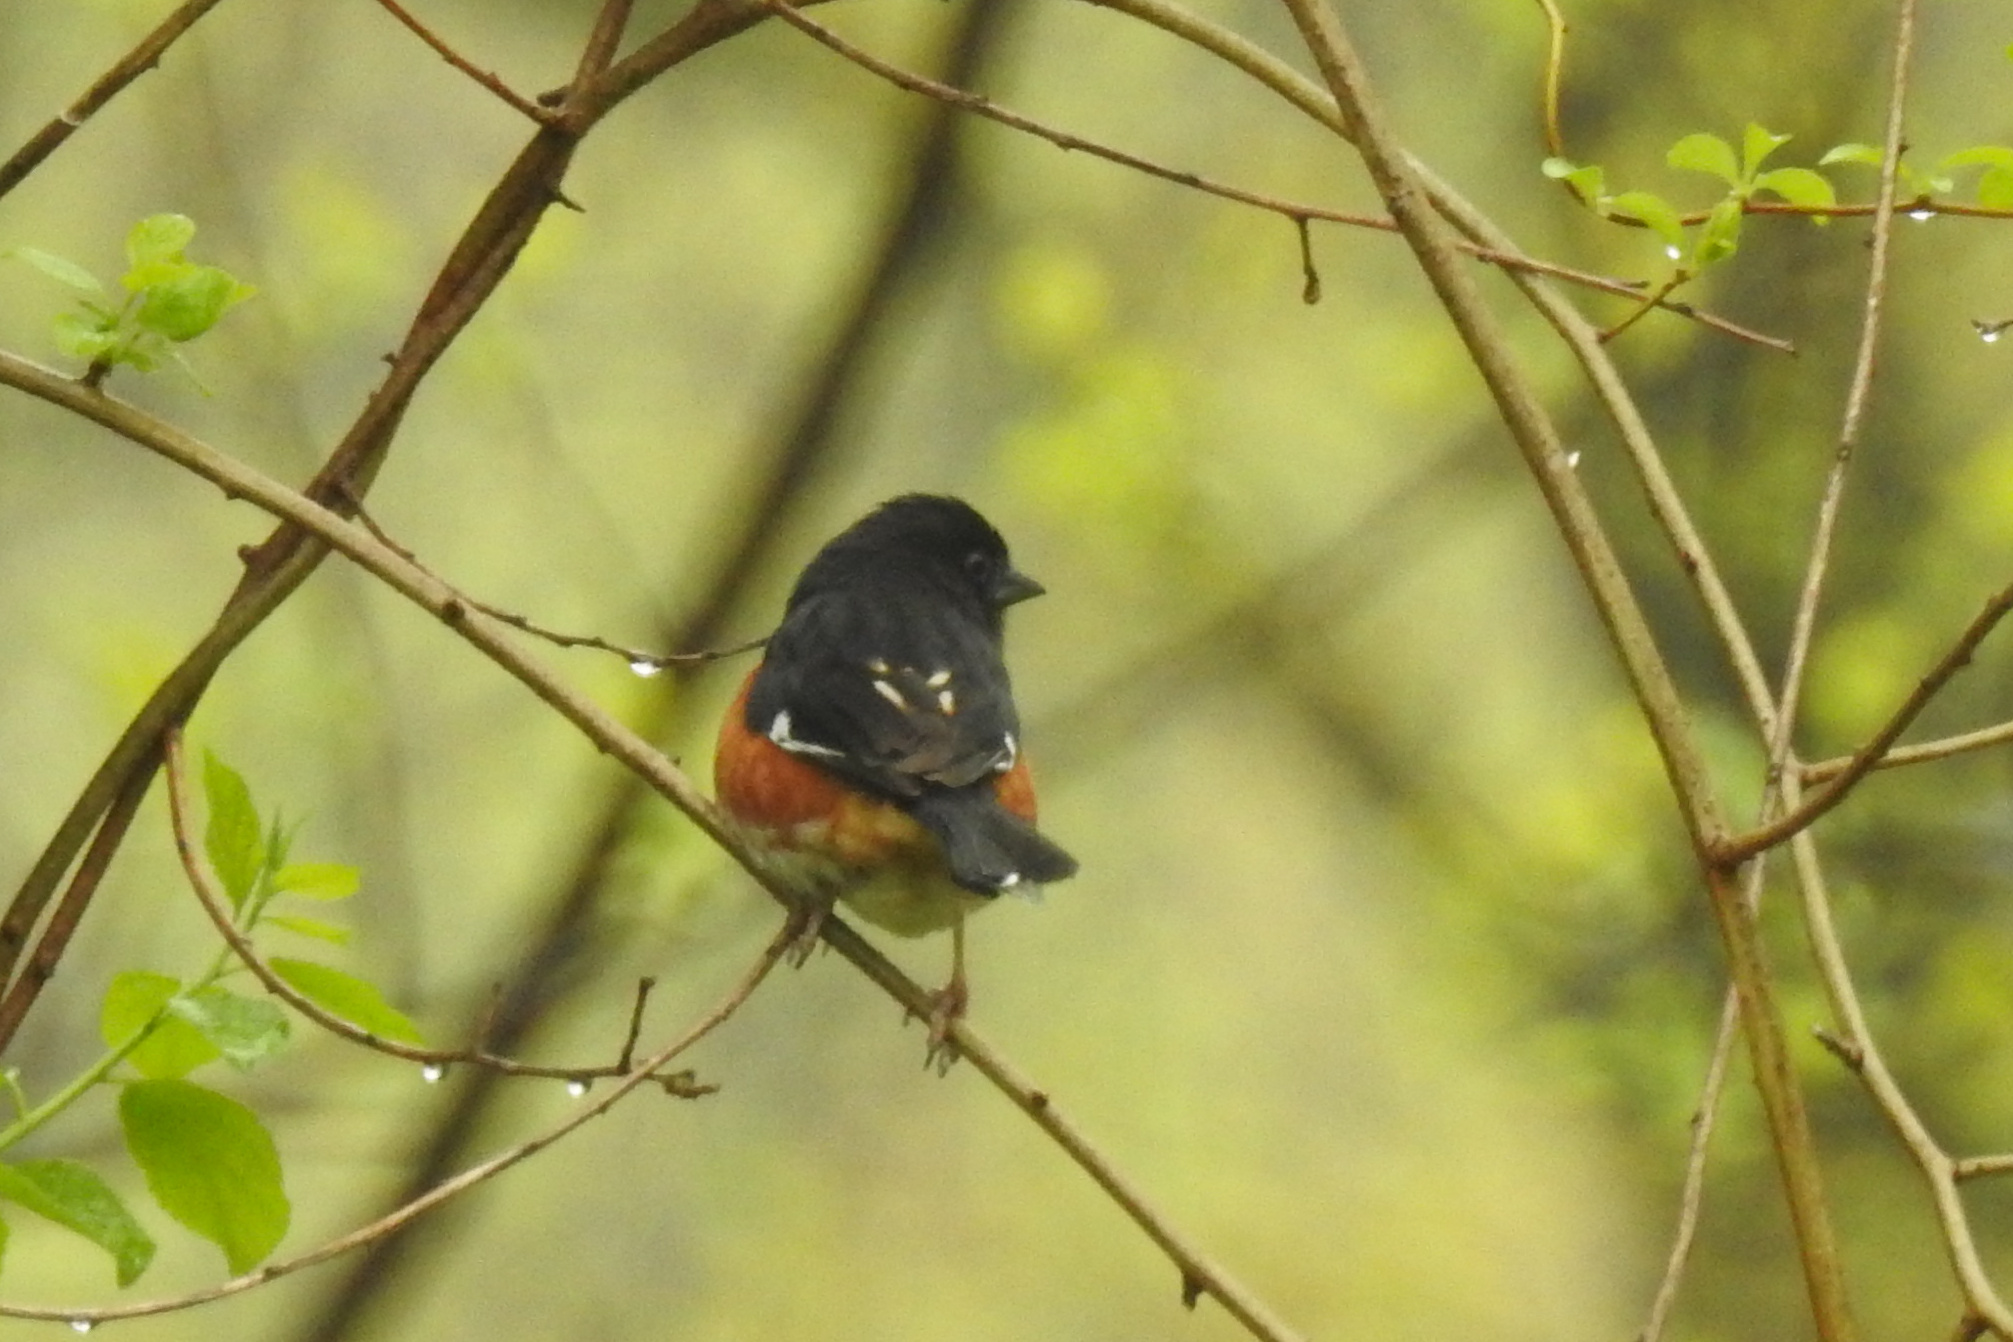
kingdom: Animalia
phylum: Chordata
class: Aves
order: Passeriformes
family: Passerellidae
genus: Pipilo
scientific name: Pipilo erythrophthalmus
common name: Eastern towhee
